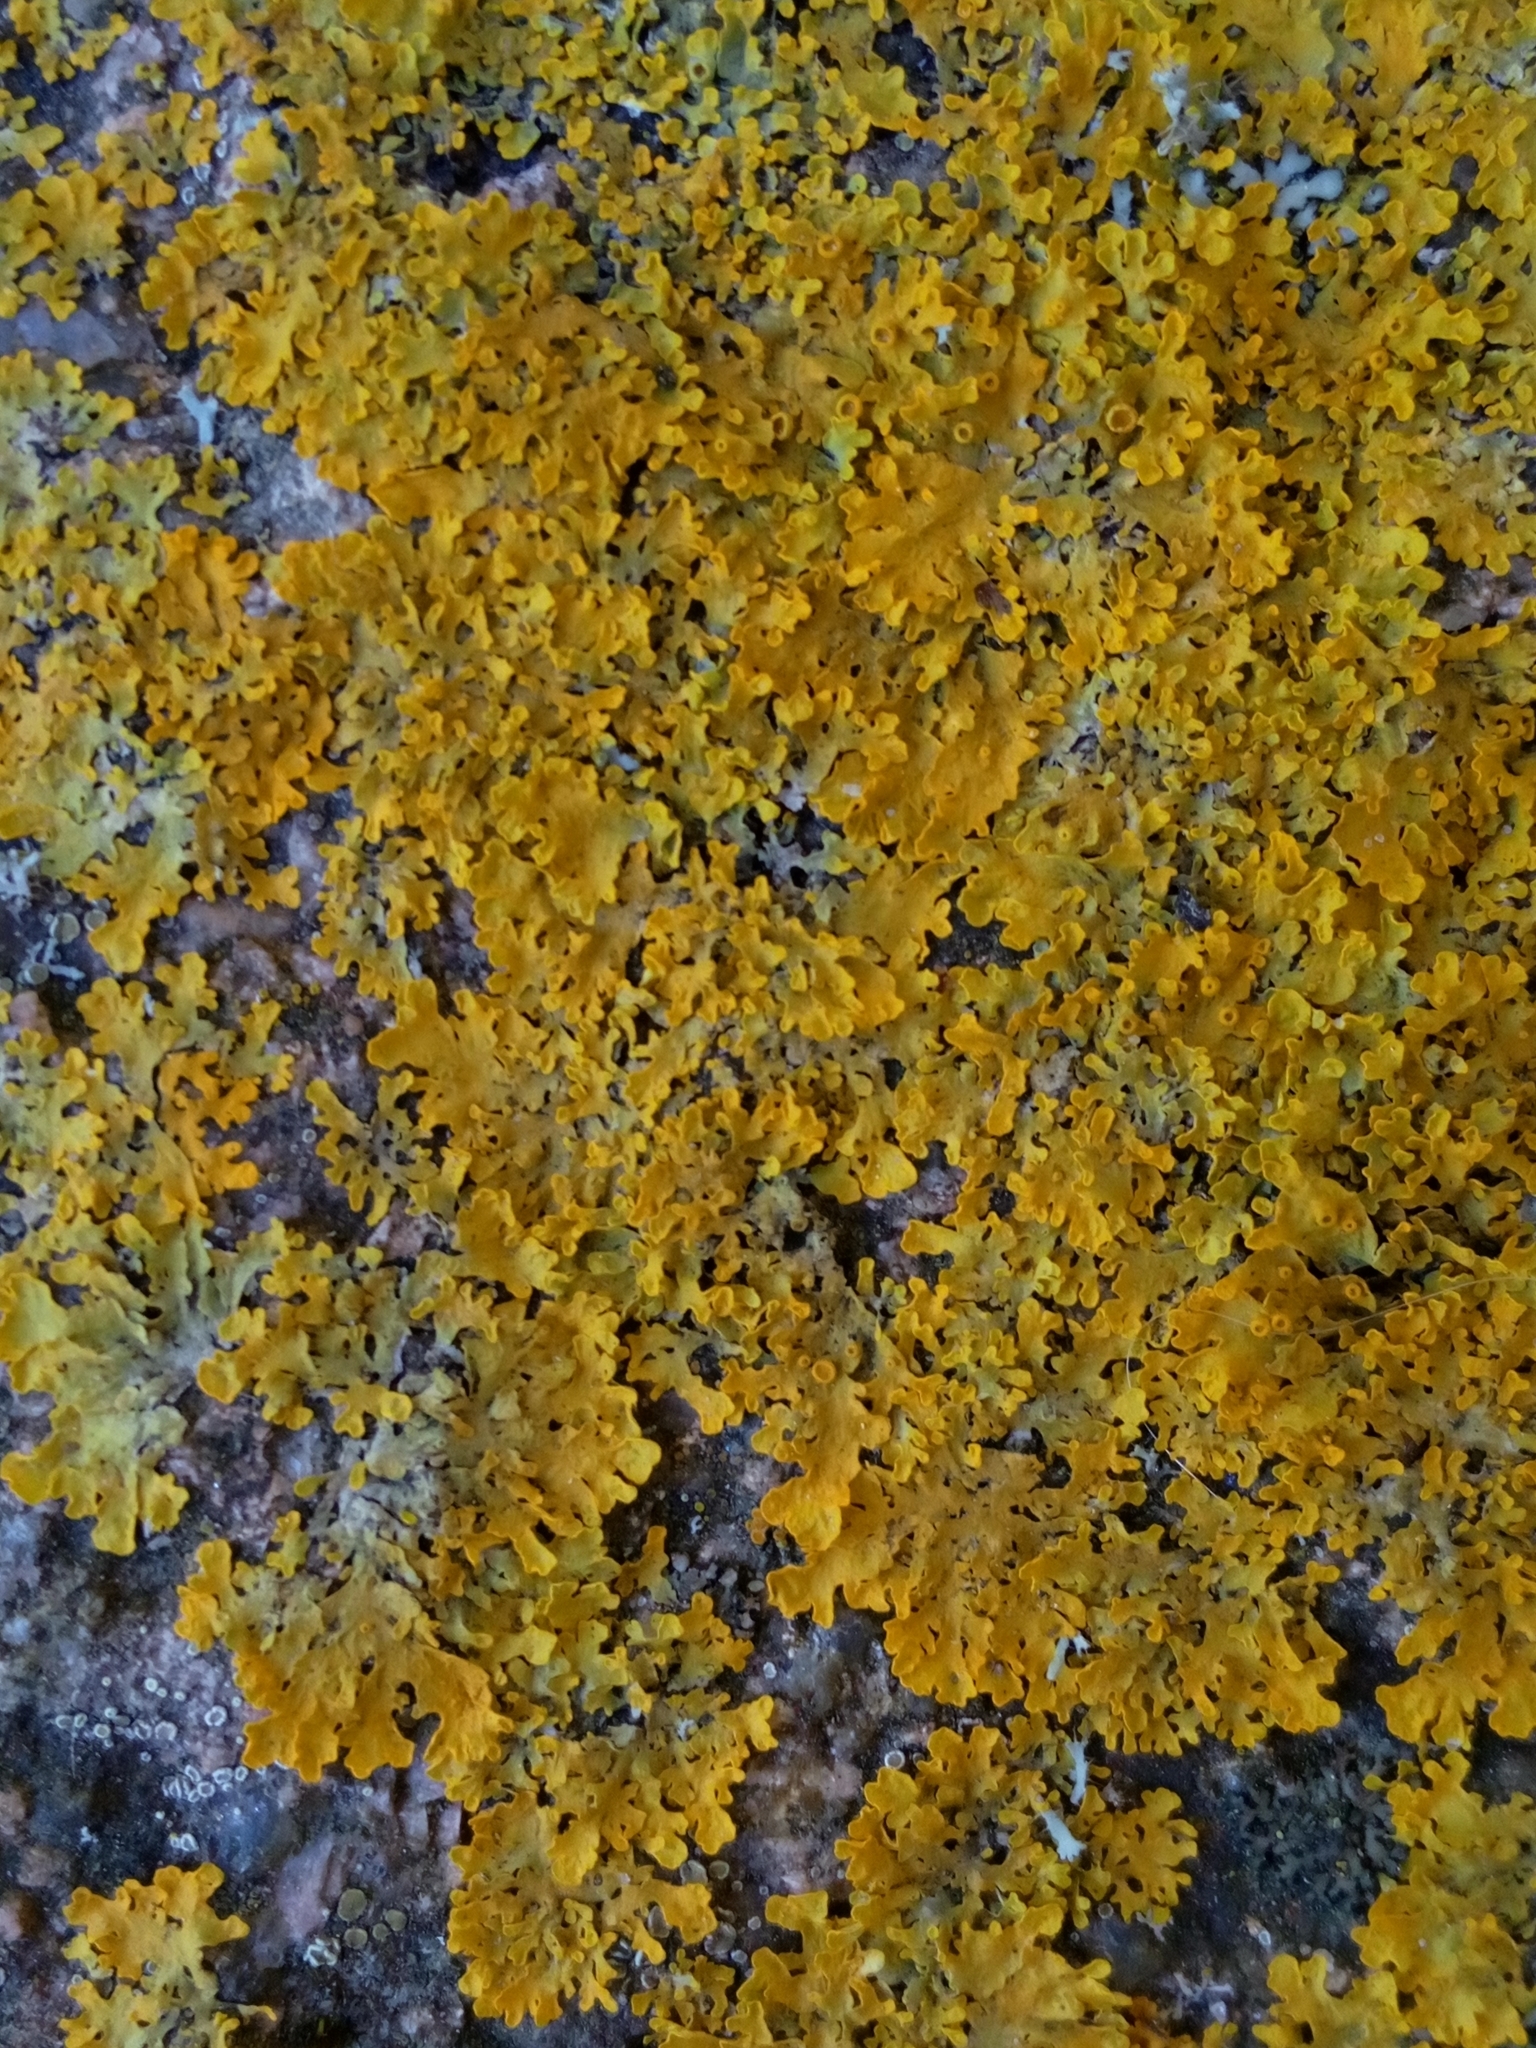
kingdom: Fungi
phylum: Ascomycota
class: Lecanoromycetes
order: Teloschistales
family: Teloschistaceae
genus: Xanthoria
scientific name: Xanthoria parietina
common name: Common orange lichen
